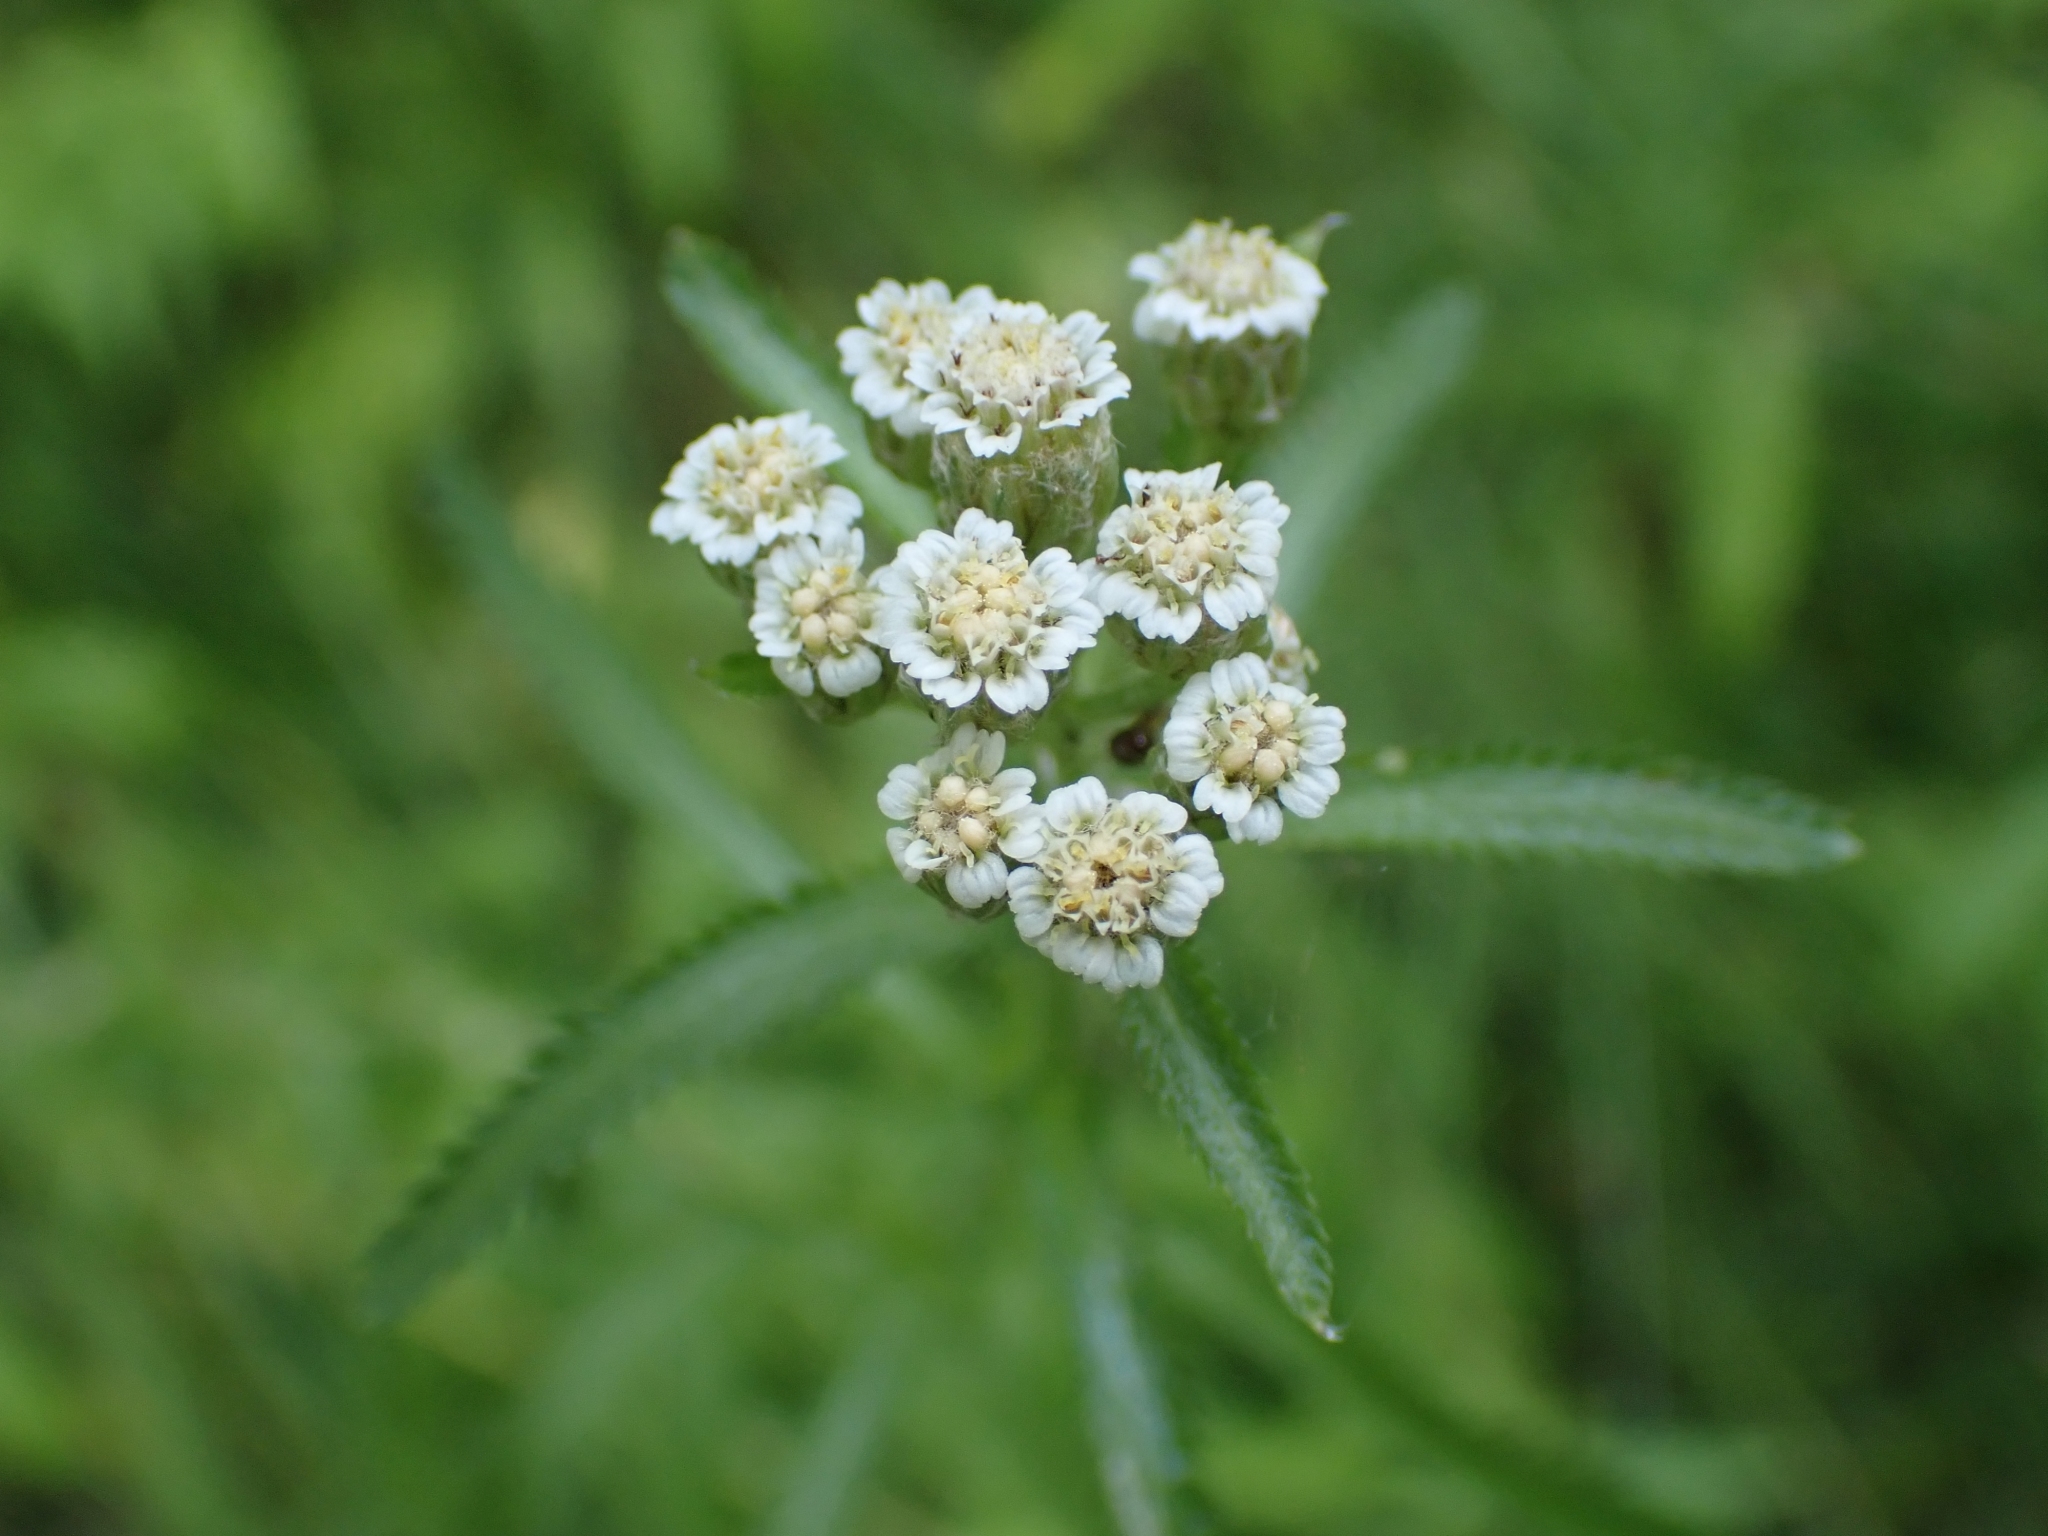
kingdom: Plantae
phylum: Tracheophyta
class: Magnoliopsida
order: Asterales
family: Asteraceae
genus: Achillea
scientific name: Achillea alpina
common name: Siberian yarrow
